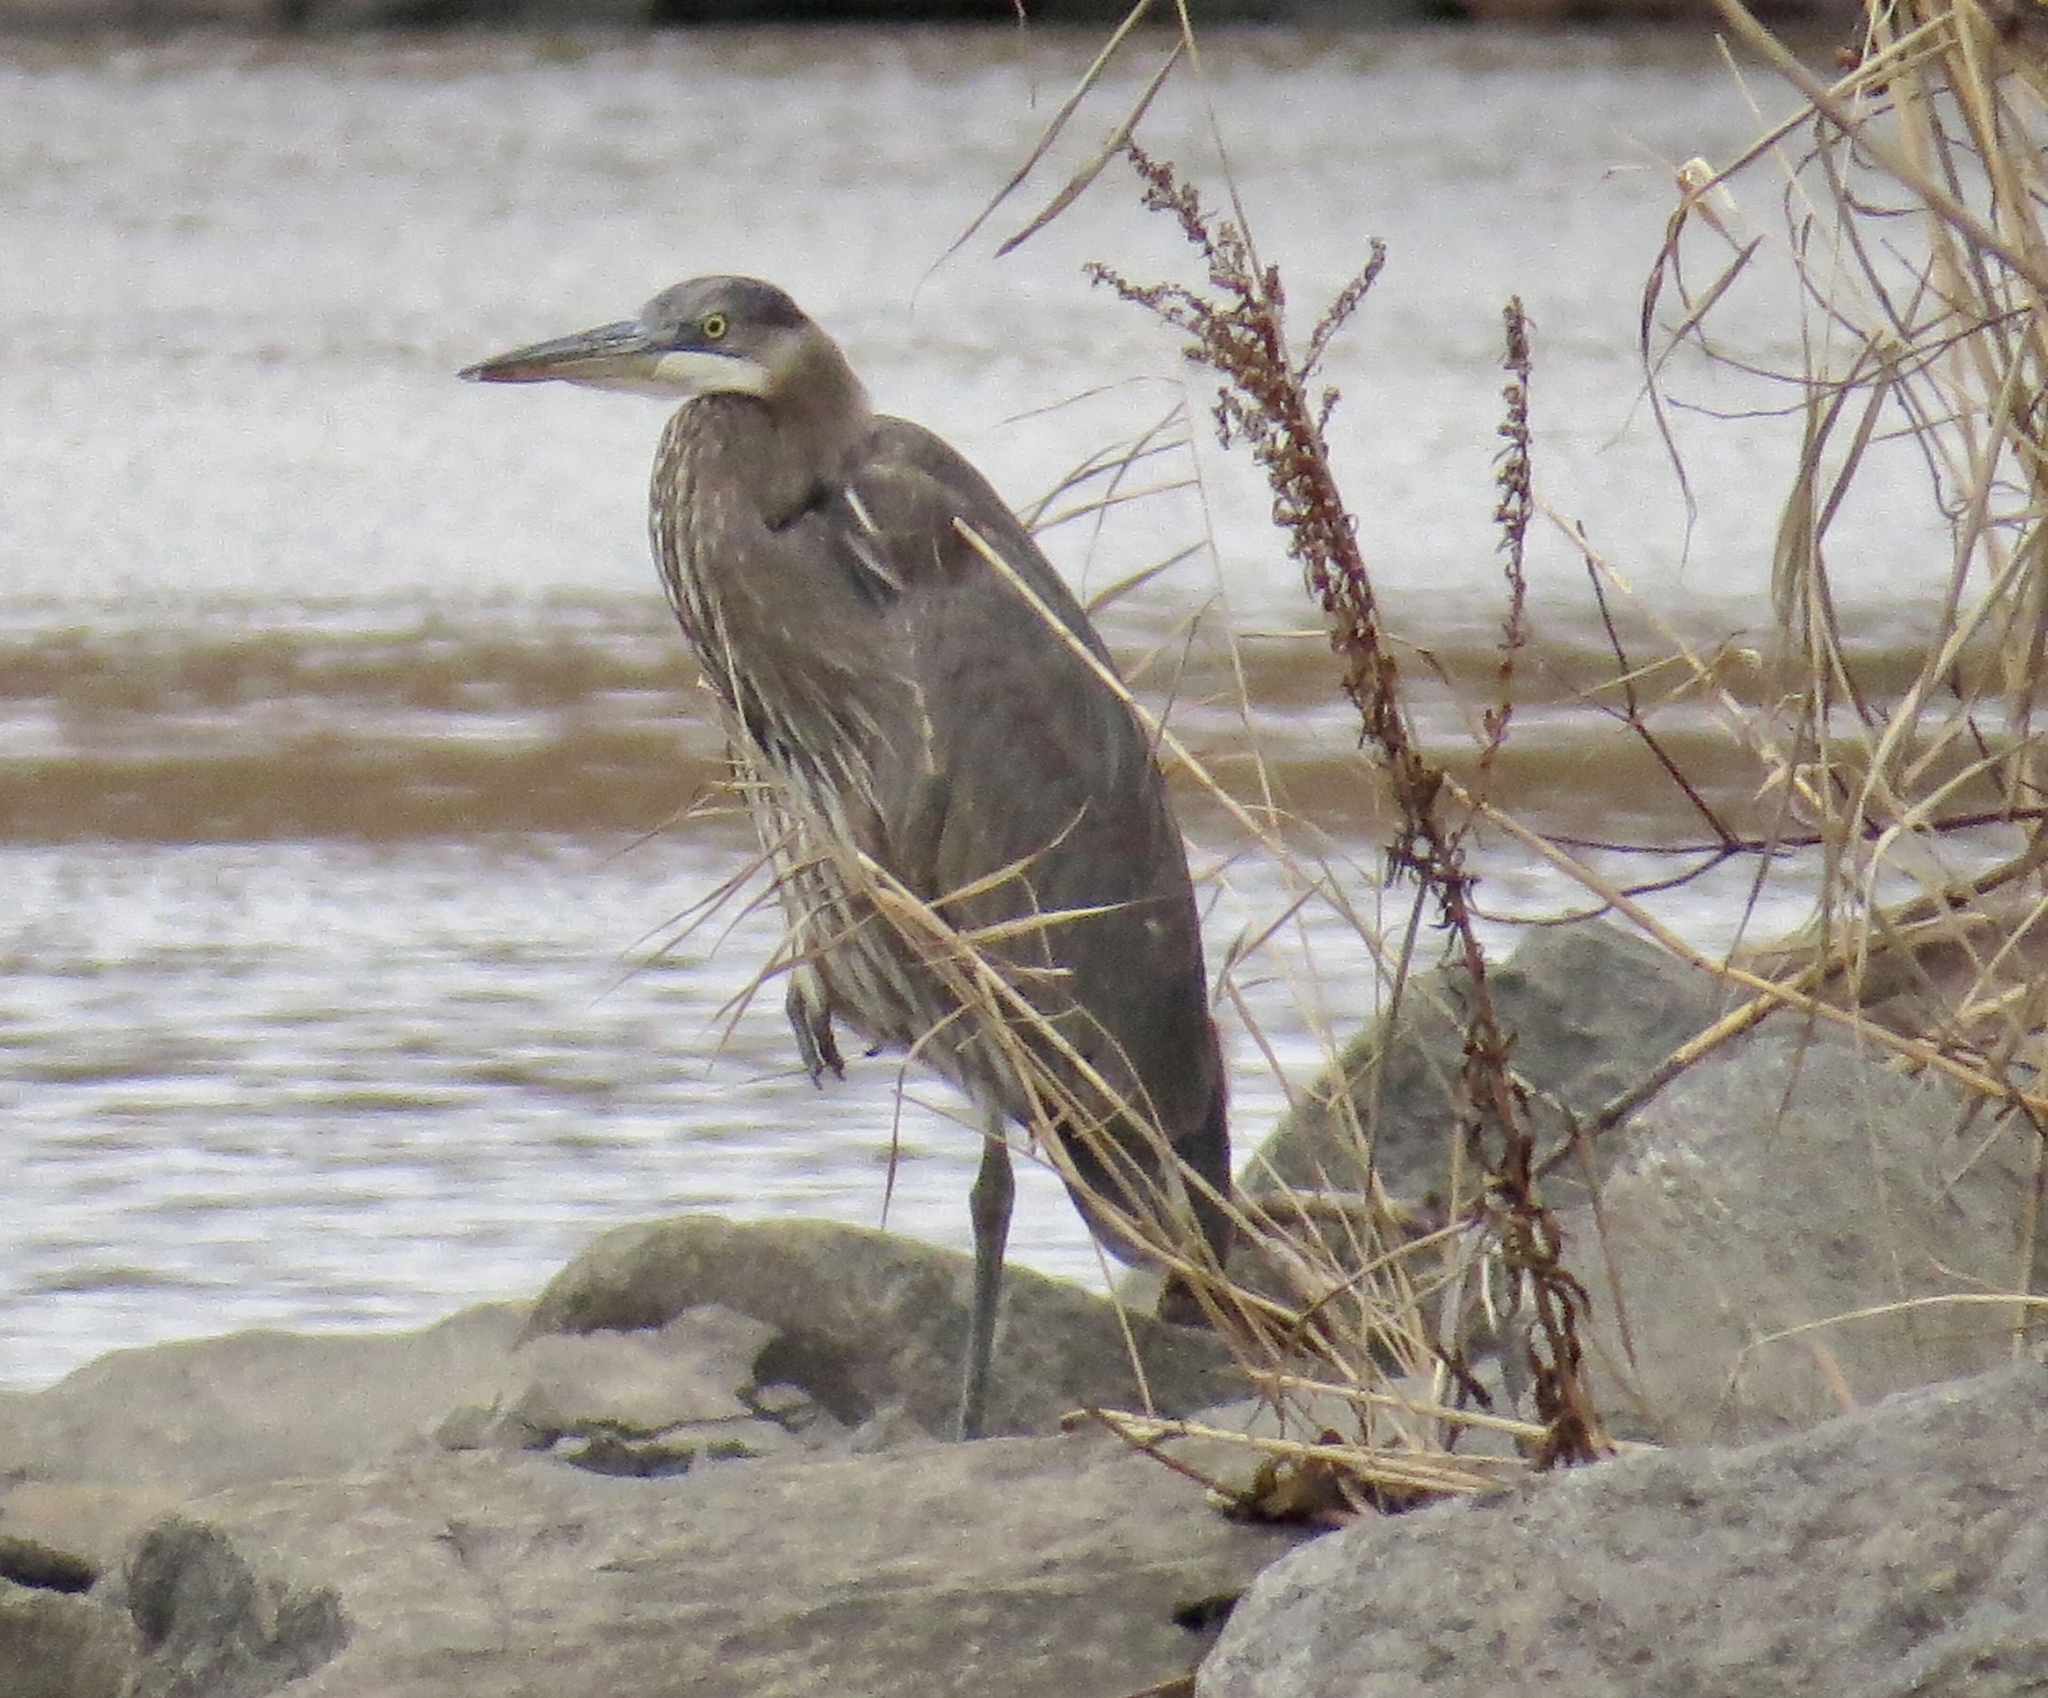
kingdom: Animalia
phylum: Chordata
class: Aves
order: Pelecaniformes
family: Ardeidae
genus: Ardea
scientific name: Ardea herodias
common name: Great blue heron
